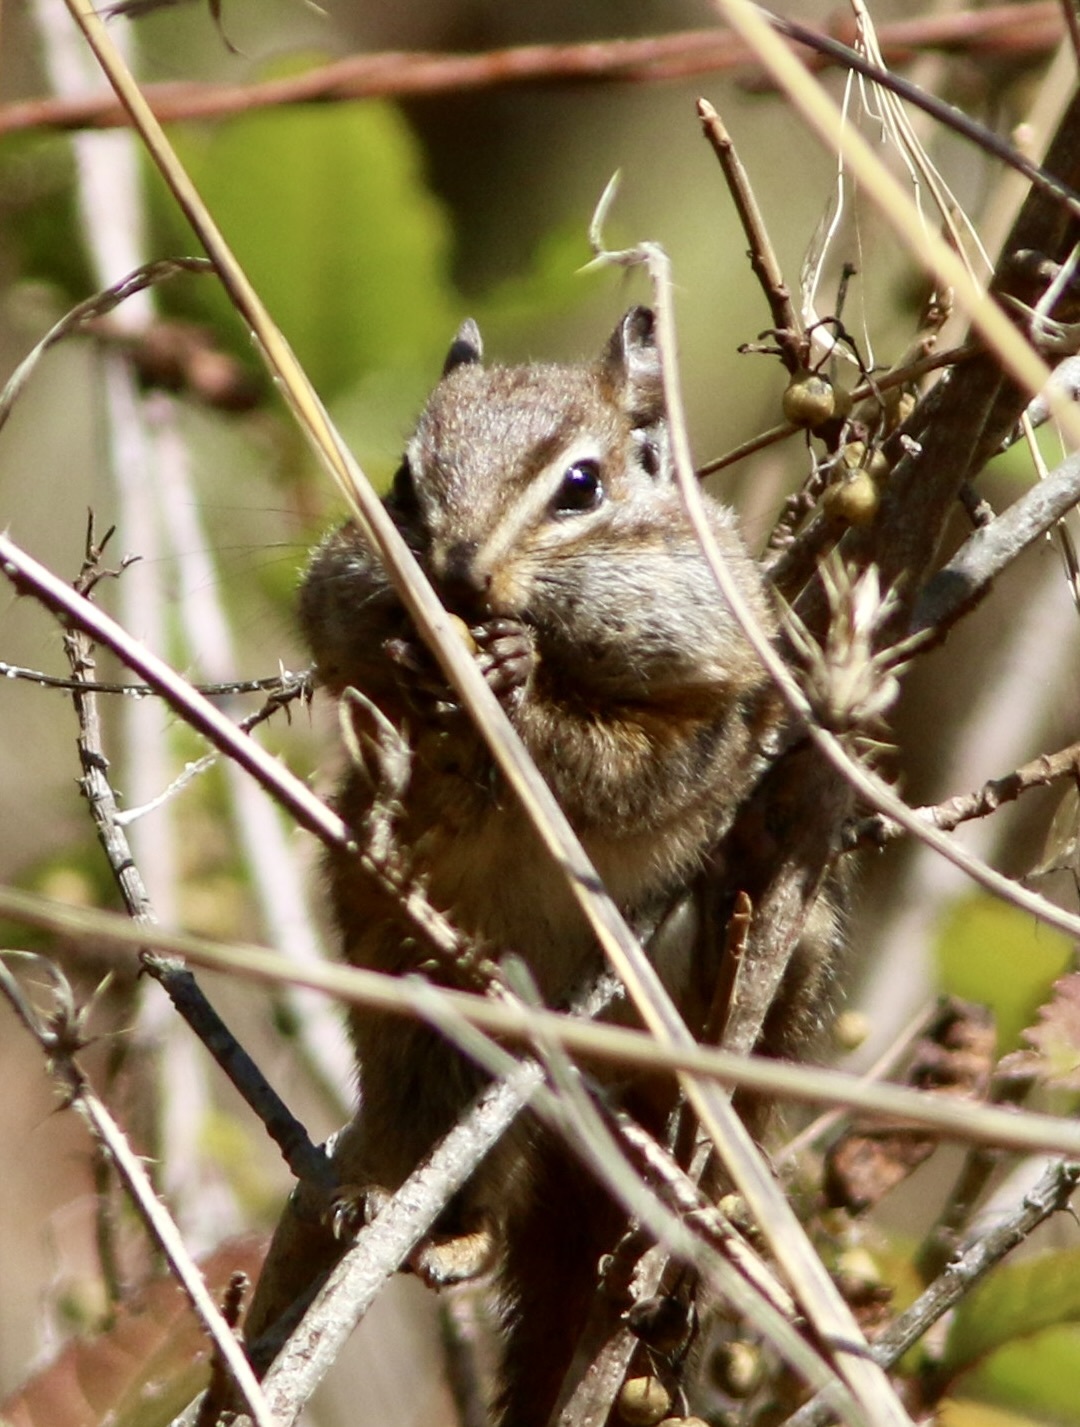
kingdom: Animalia
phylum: Chordata
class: Mammalia
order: Rodentia
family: Sciuridae
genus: Tamias
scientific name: Tamias merriami
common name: Merriam's chipmunk
